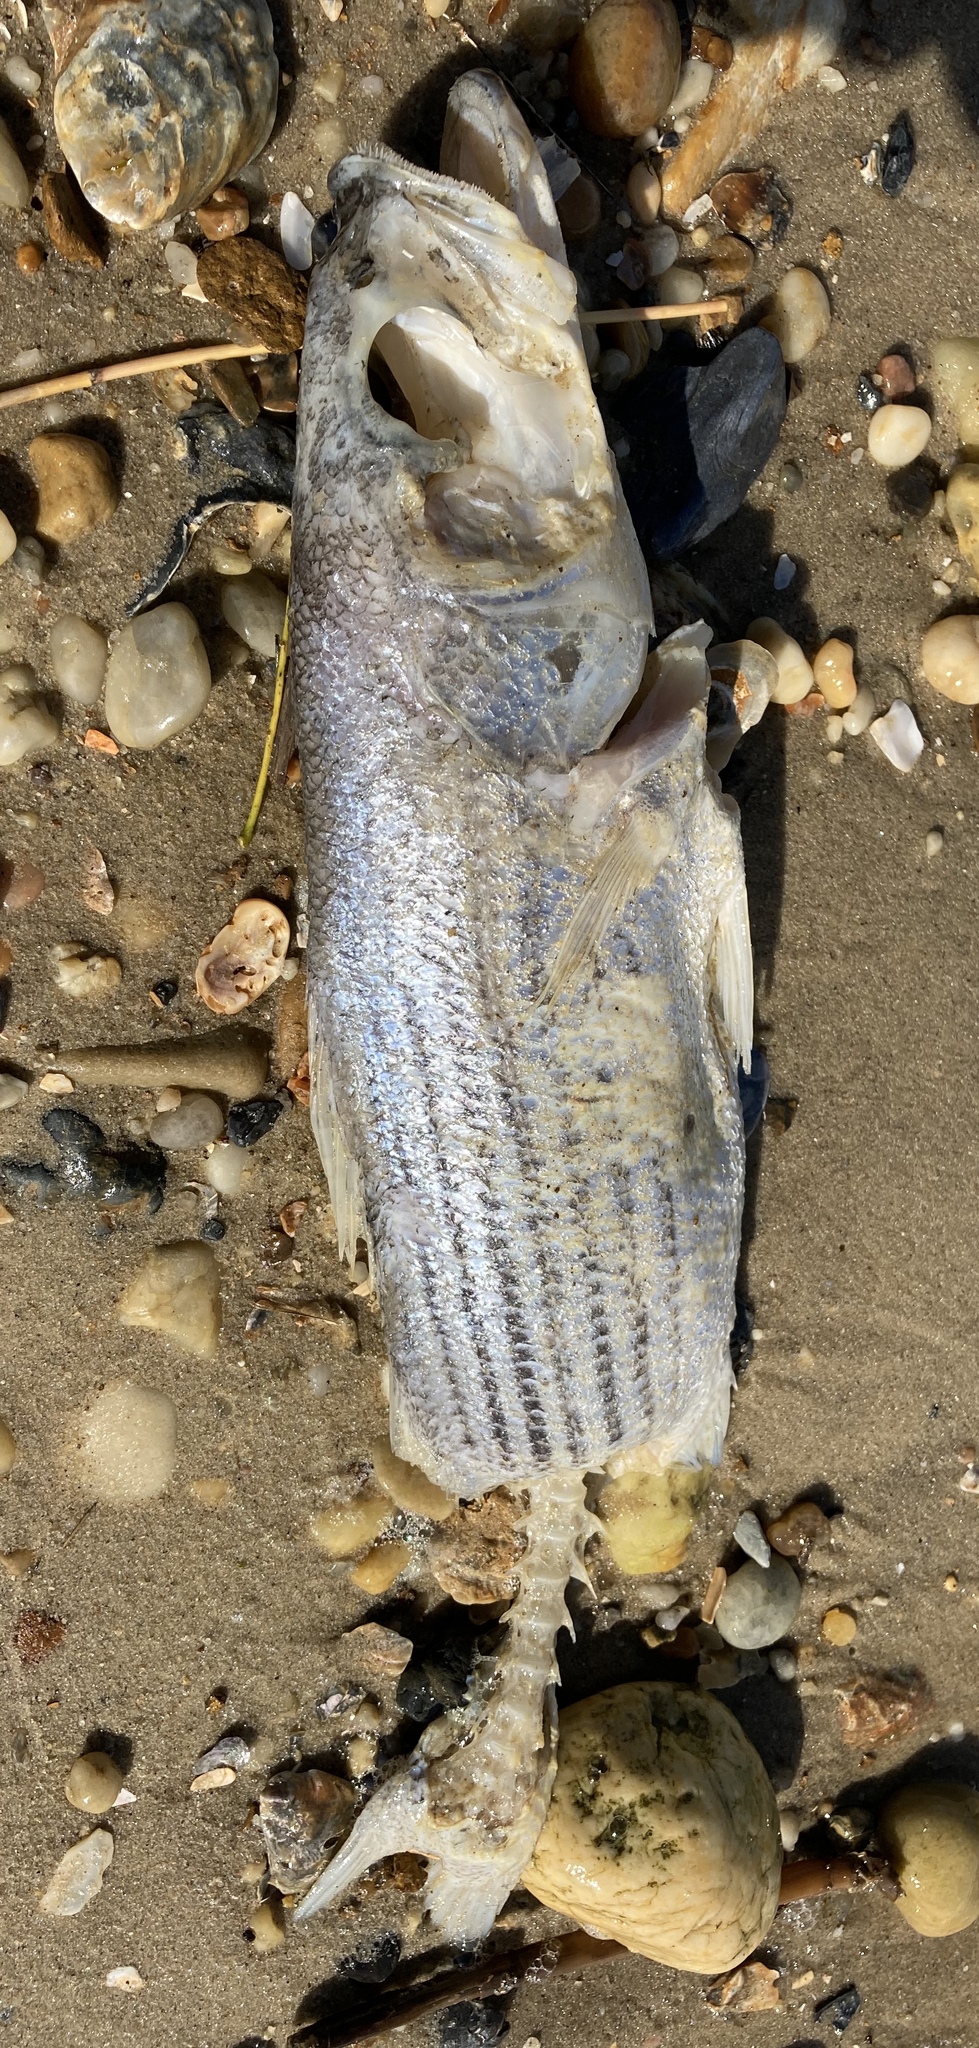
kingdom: Animalia
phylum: Chordata
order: Perciformes
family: Moronidae
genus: Morone
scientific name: Morone saxatilis
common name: Striped bass
